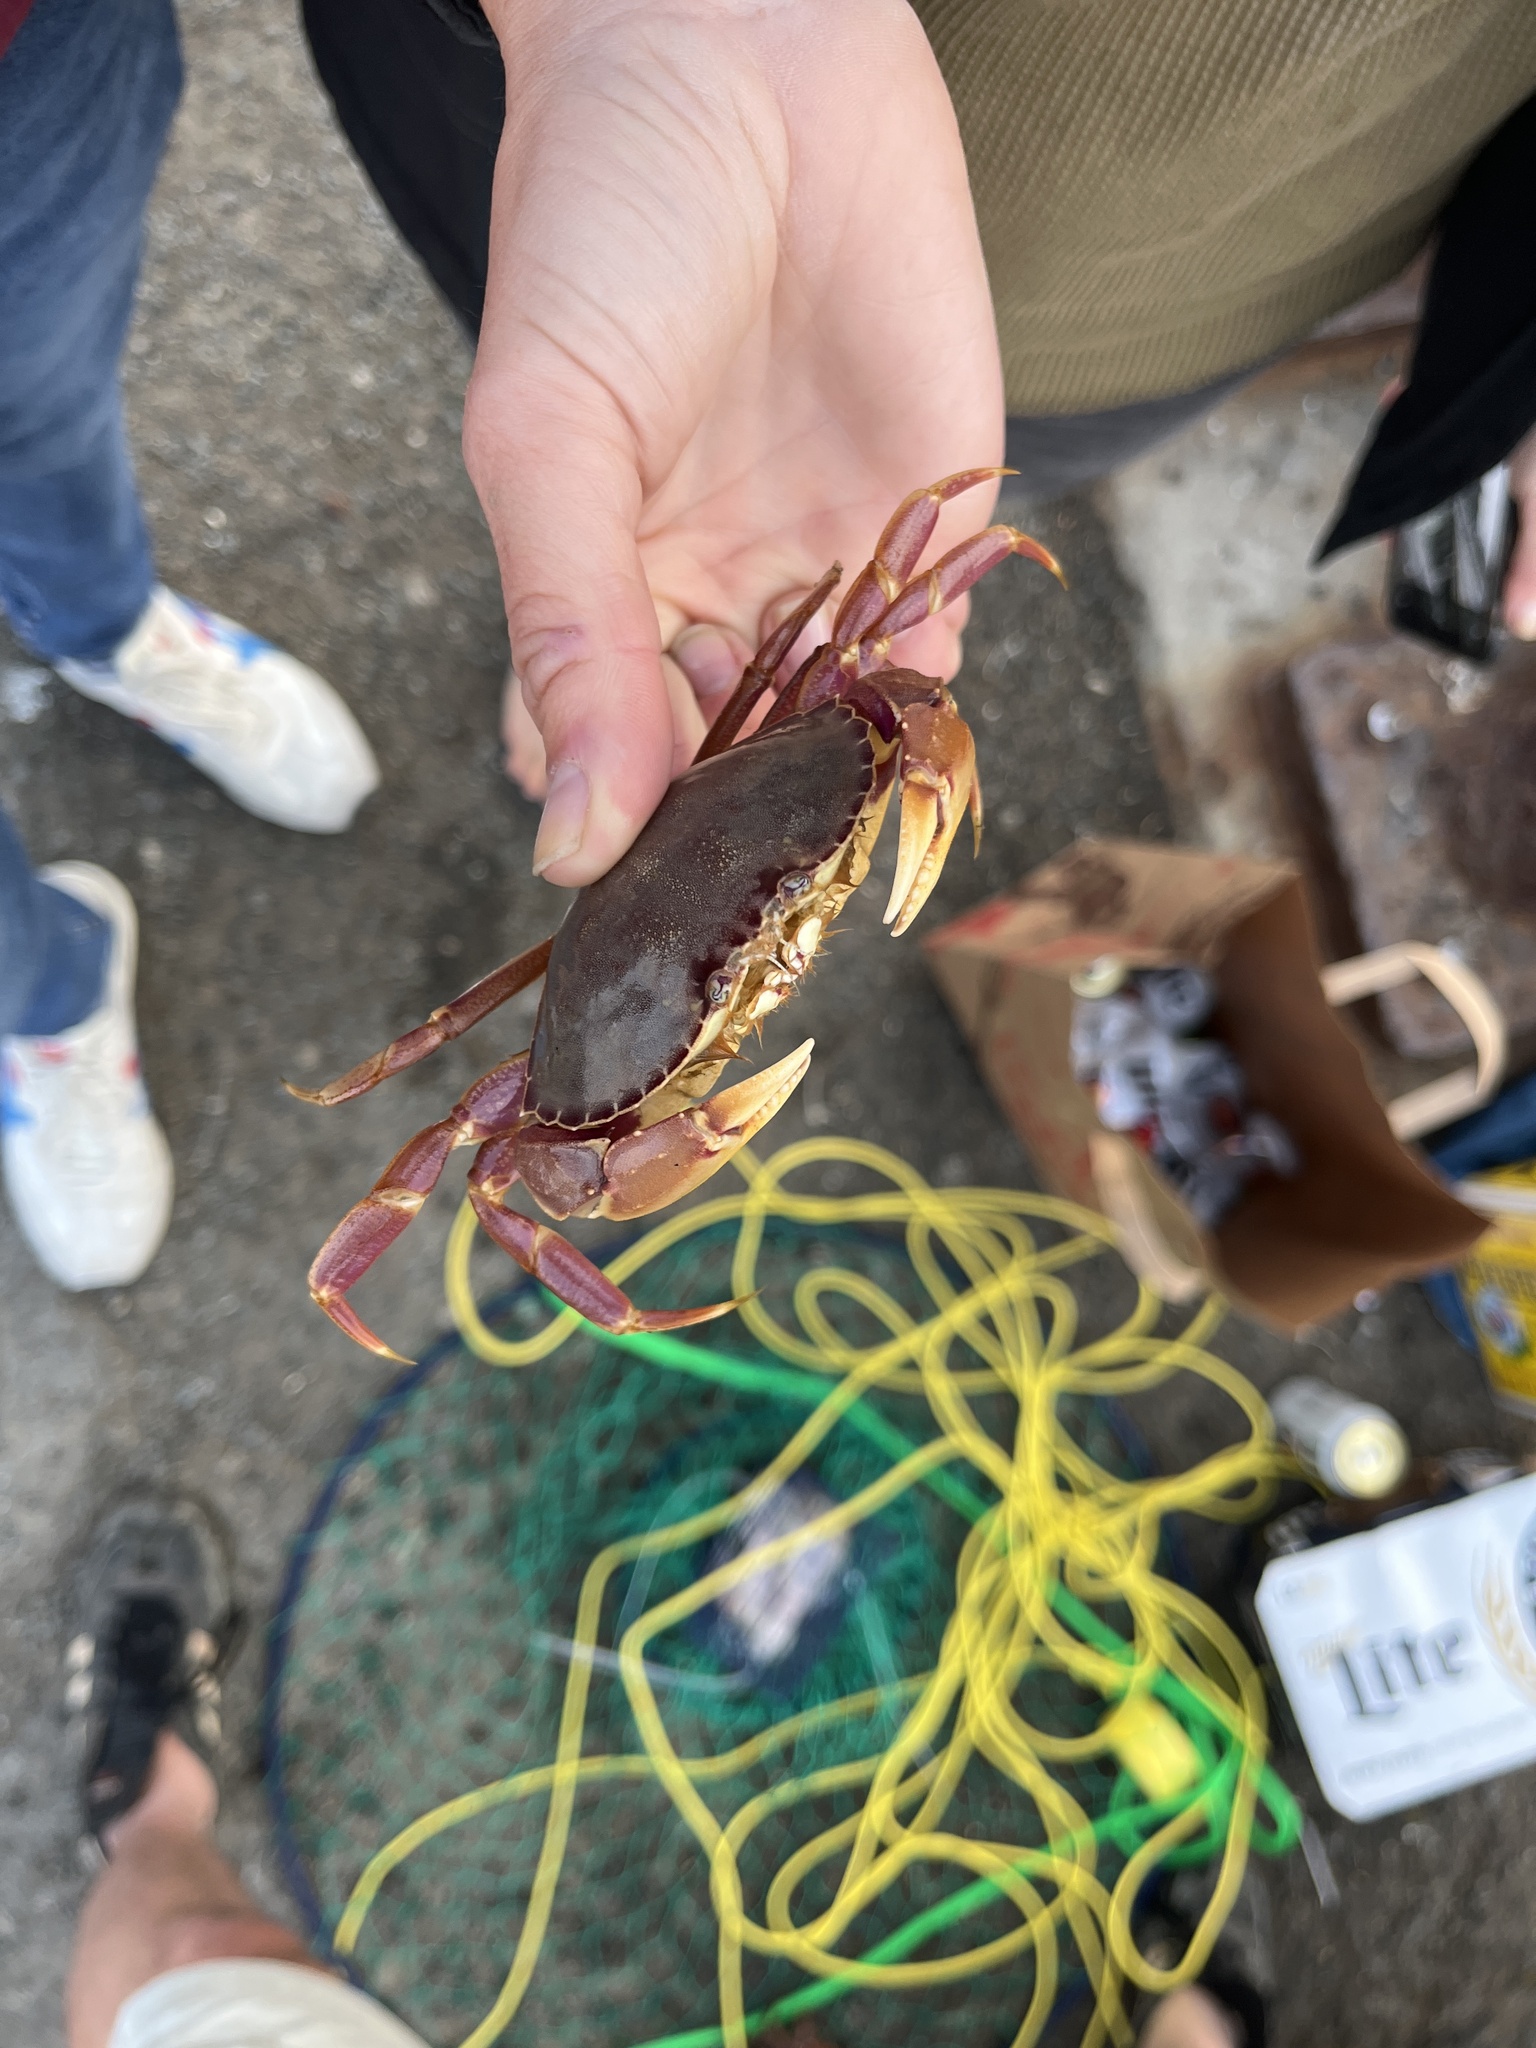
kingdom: Animalia
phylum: Arthropoda
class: Malacostraca
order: Decapoda
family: Cancridae
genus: Metacarcinus
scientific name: Metacarcinus gracilis
